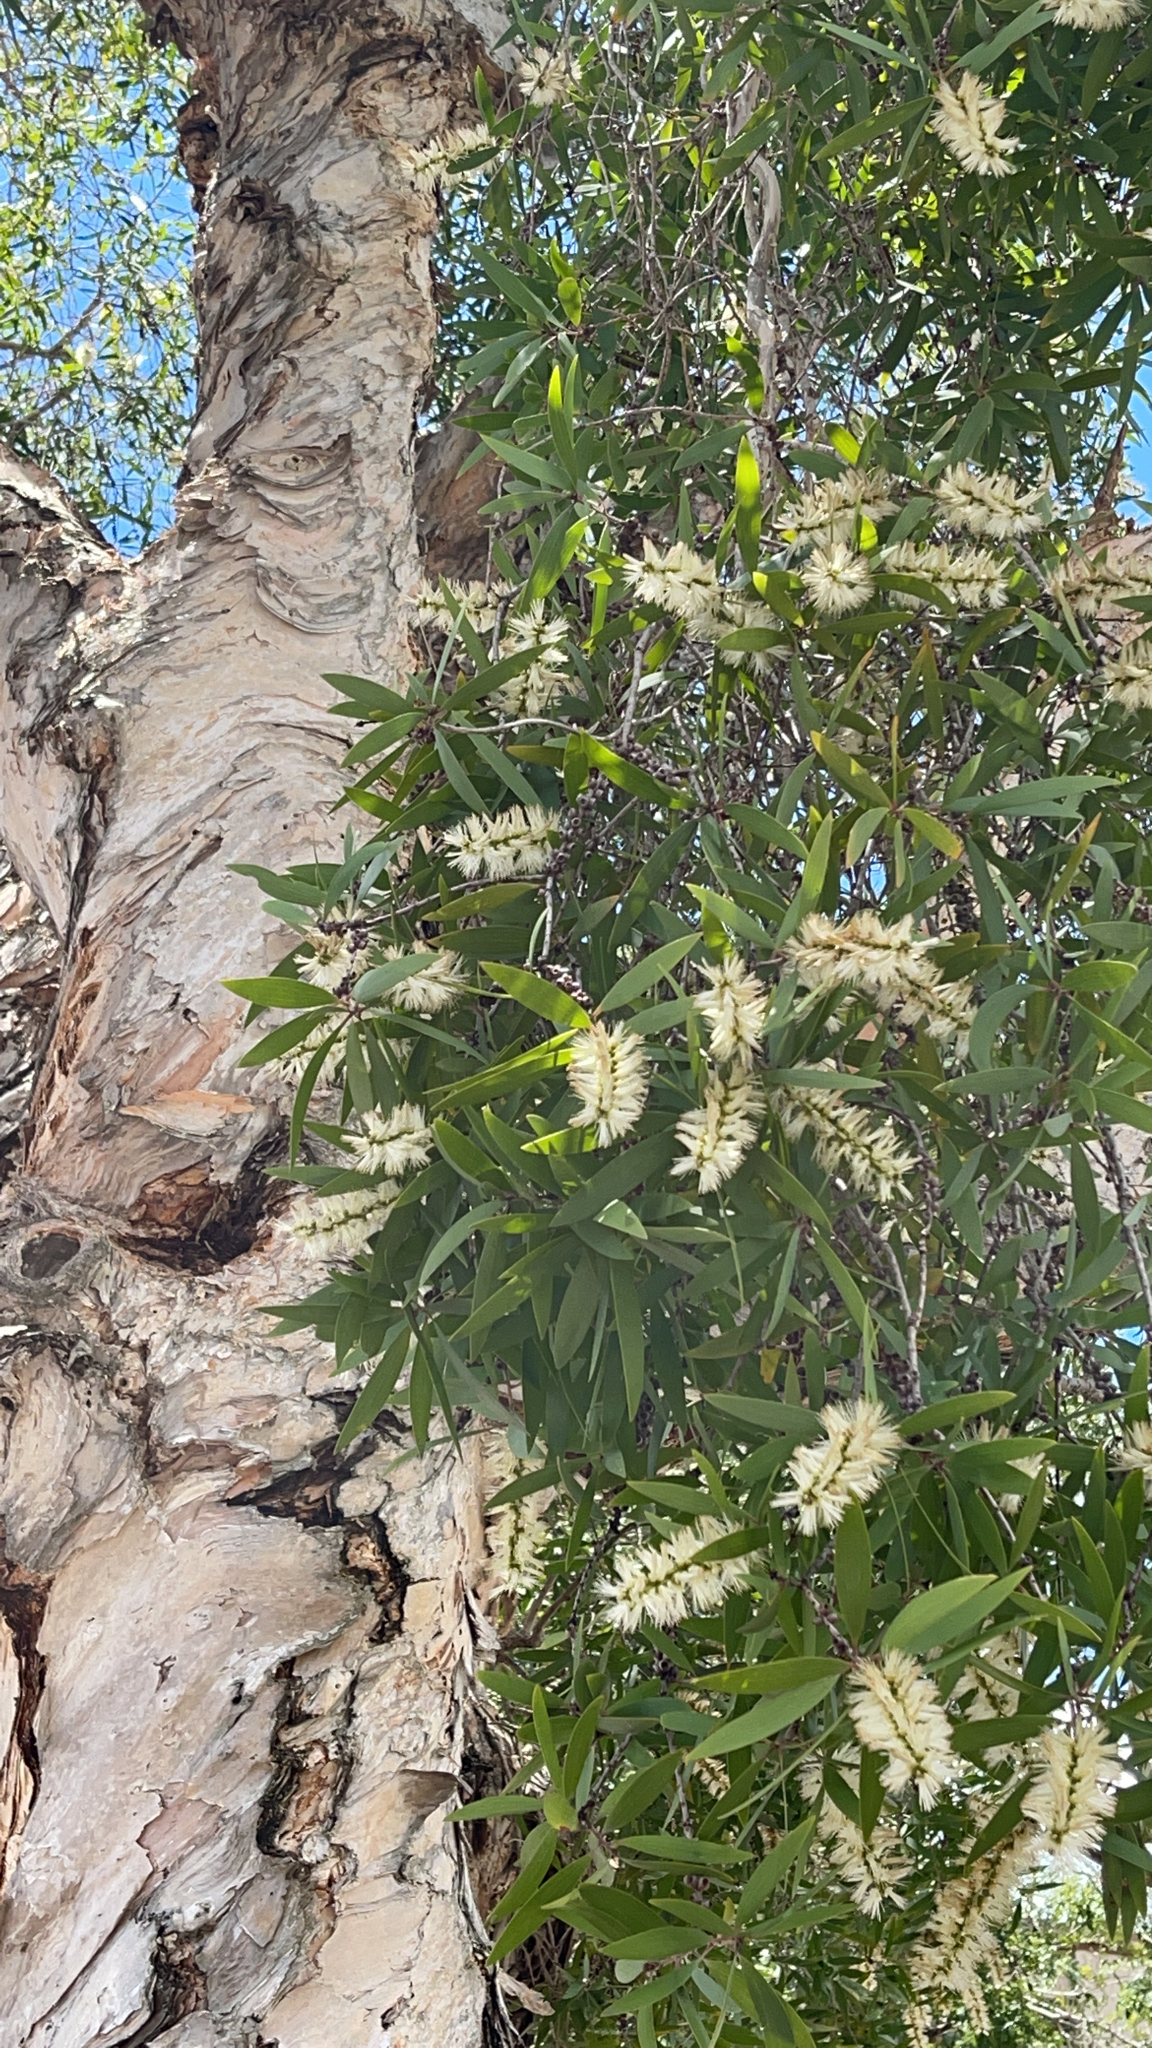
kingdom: Plantae
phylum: Tracheophyta
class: Magnoliopsida
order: Myrtales
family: Myrtaceae
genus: Melaleuca
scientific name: Melaleuca quinquenervia
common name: Punktree
